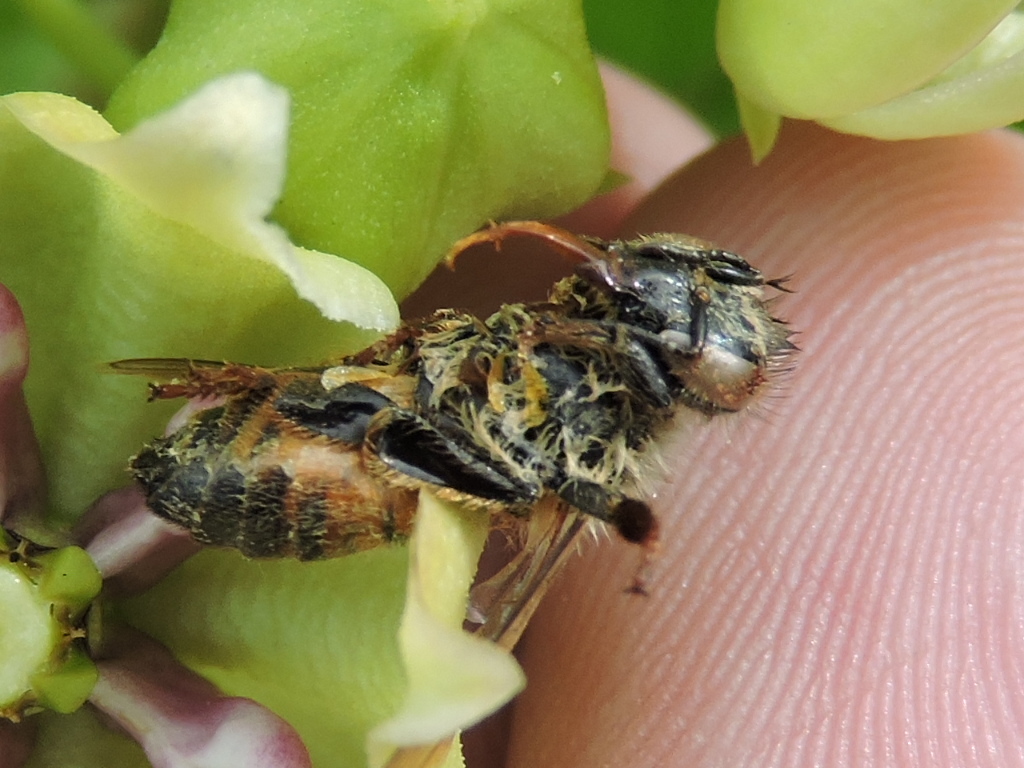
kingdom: Animalia
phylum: Arthropoda
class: Insecta
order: Hymenoptera
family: Apidae
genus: Apis
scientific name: Apis mellifera
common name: Honey bee
